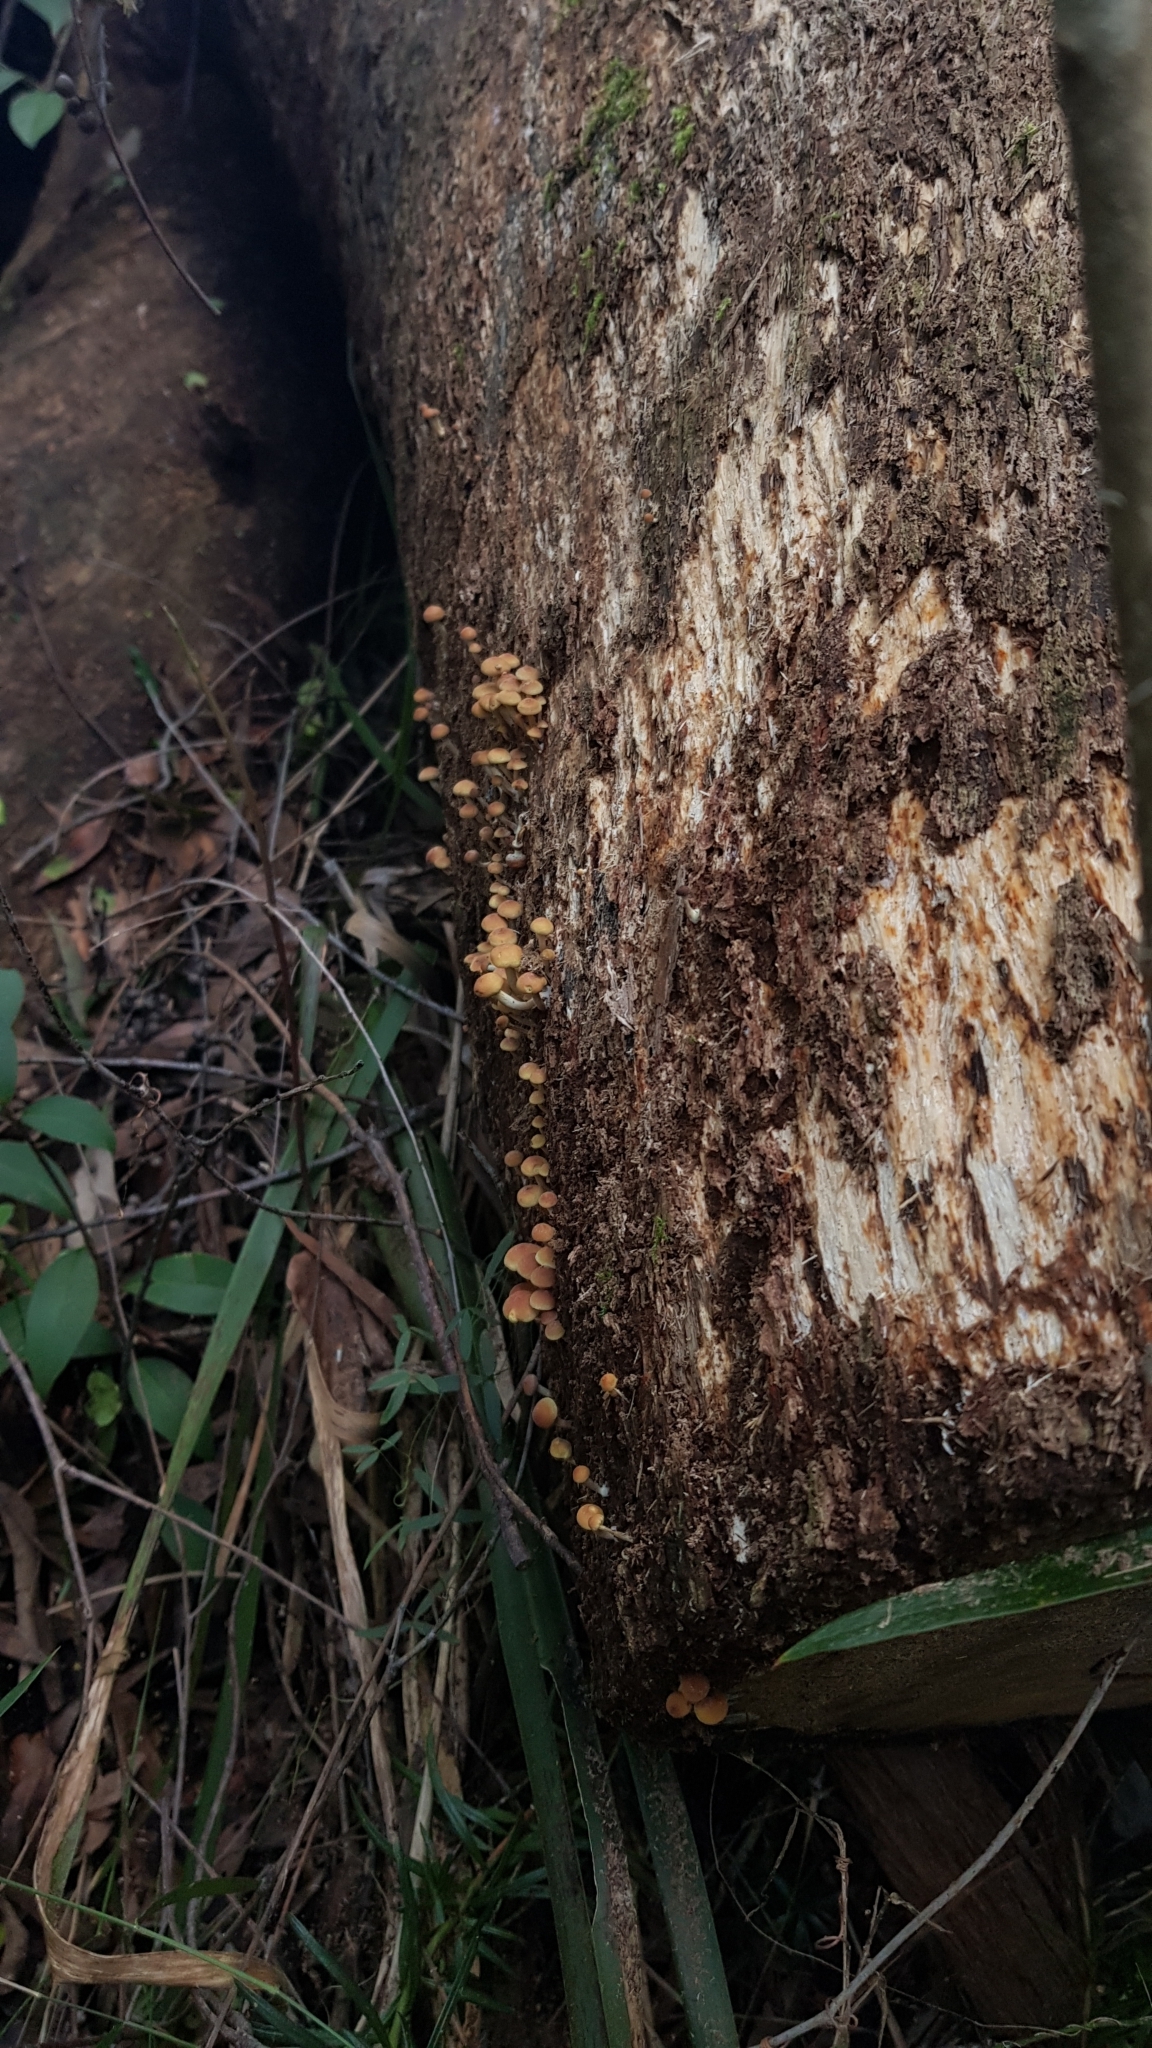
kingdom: Fungi
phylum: Basidiomycota
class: Agaricomycetes
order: Agaricales
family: Strophariaceae
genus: Hypholoma
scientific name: Hypholoma fasciculare
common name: Sulphur tuft
